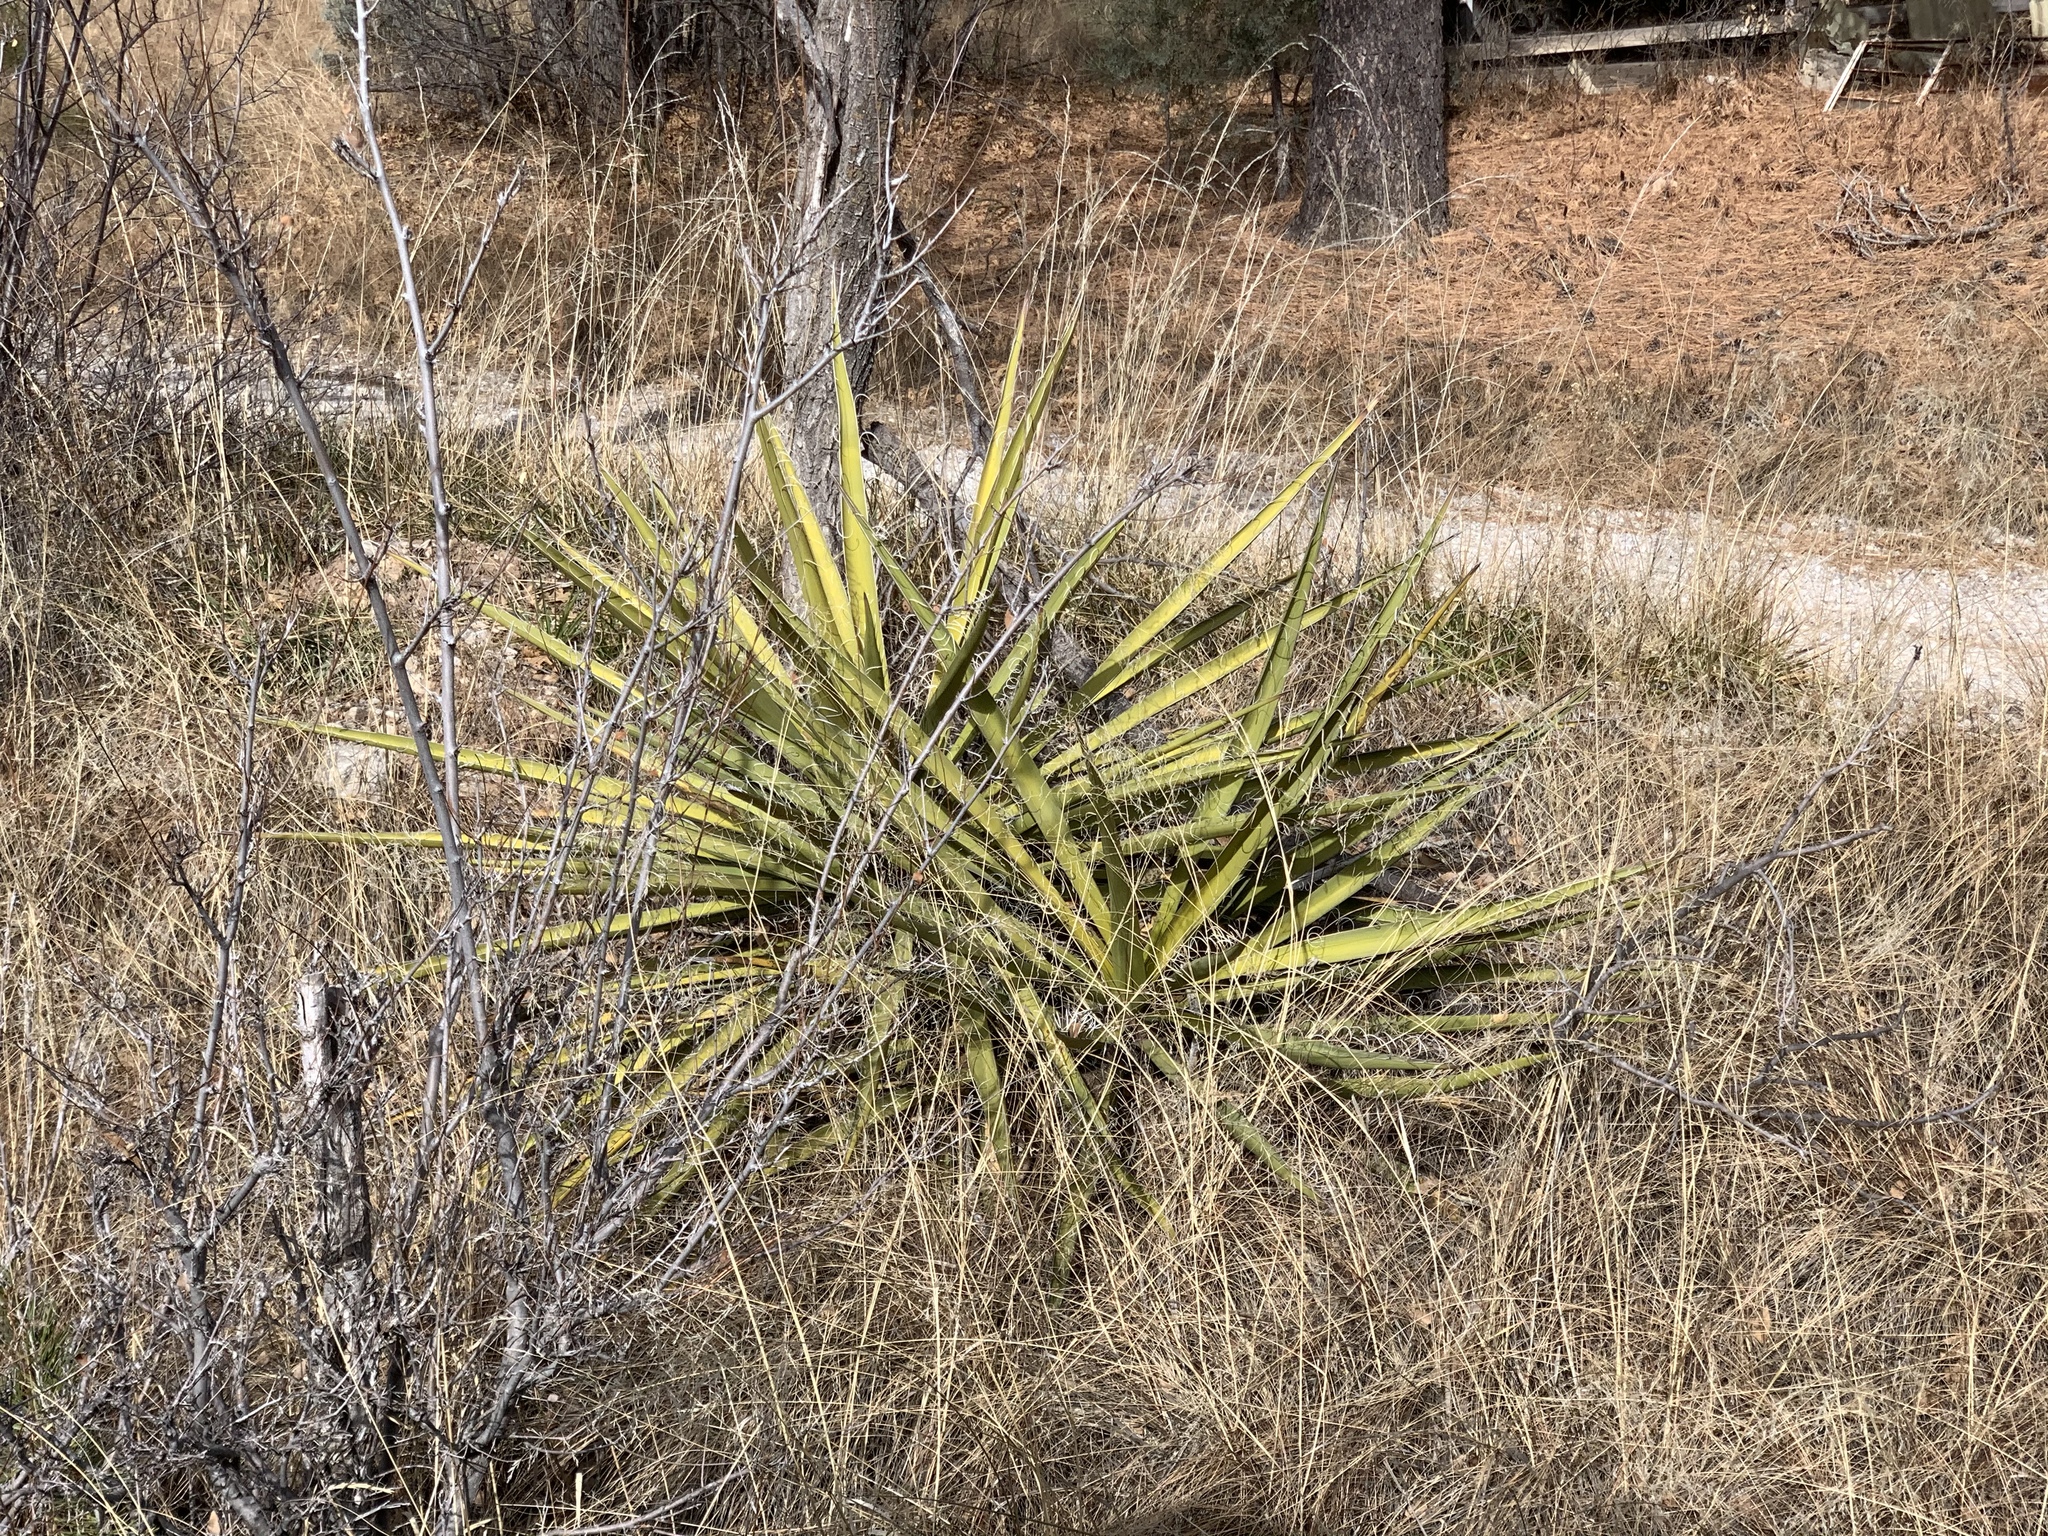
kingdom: Plantae
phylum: Tracheophyta
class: Liliopsida
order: Asparagales
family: Asparagaceae
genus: Yucca
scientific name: Yucca baccata
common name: Banana yucca
